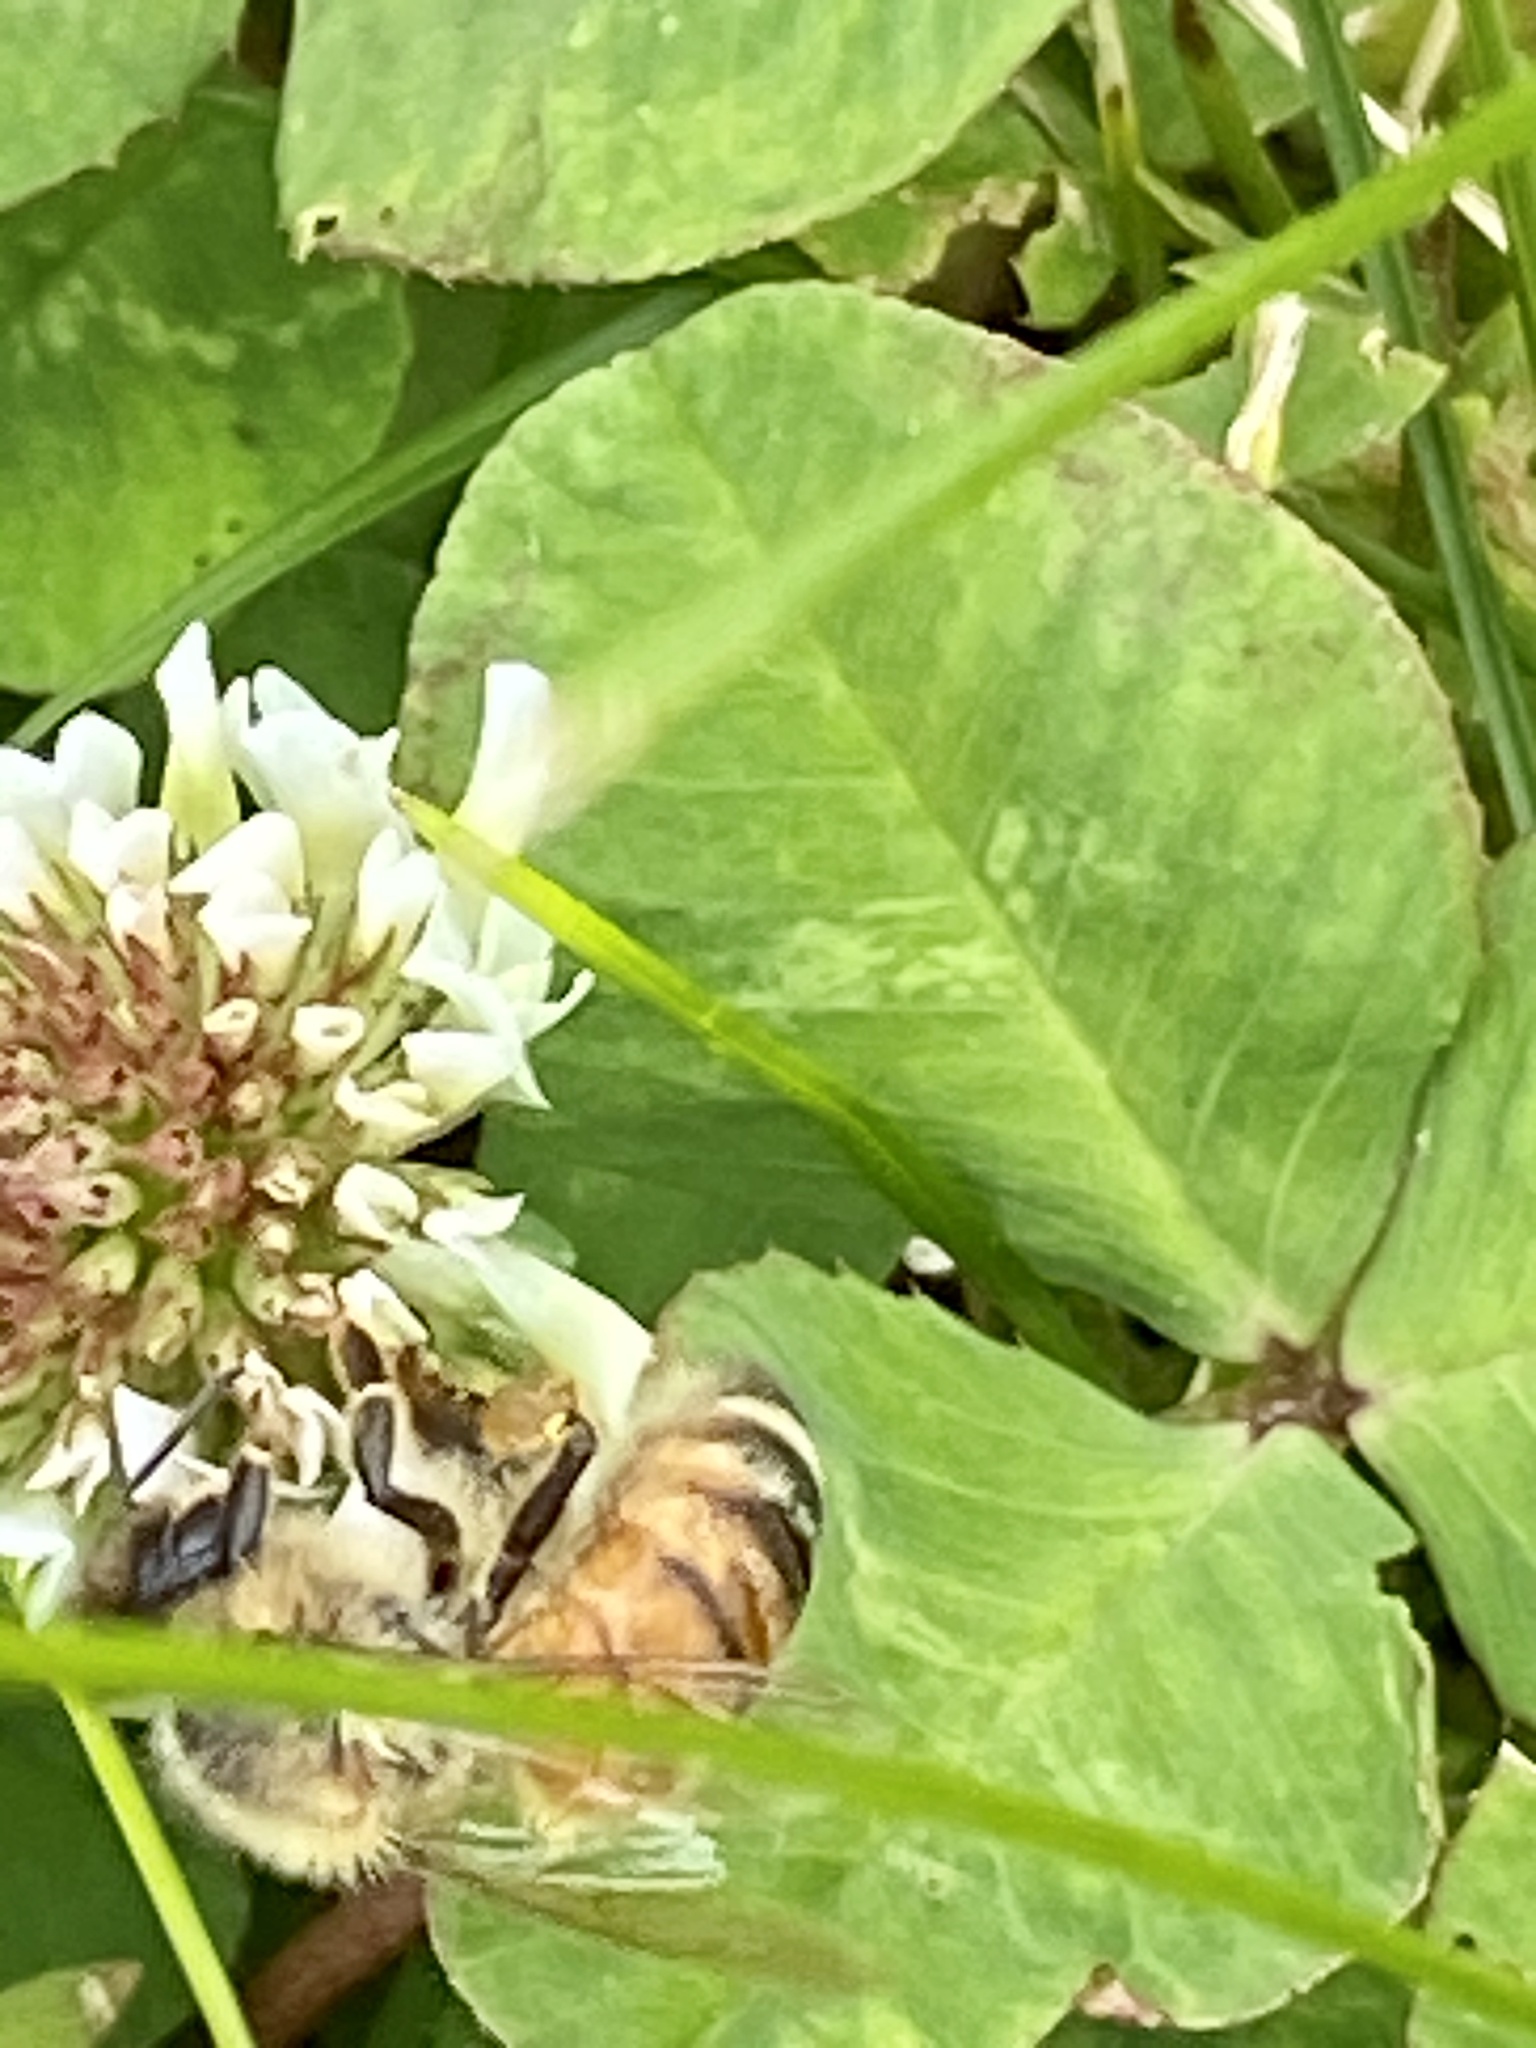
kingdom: Animalia
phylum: Arthropoda
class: Insecta
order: Hymenoptera
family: Apidae
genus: Apis
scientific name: Apis mellifera
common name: Honey bee
